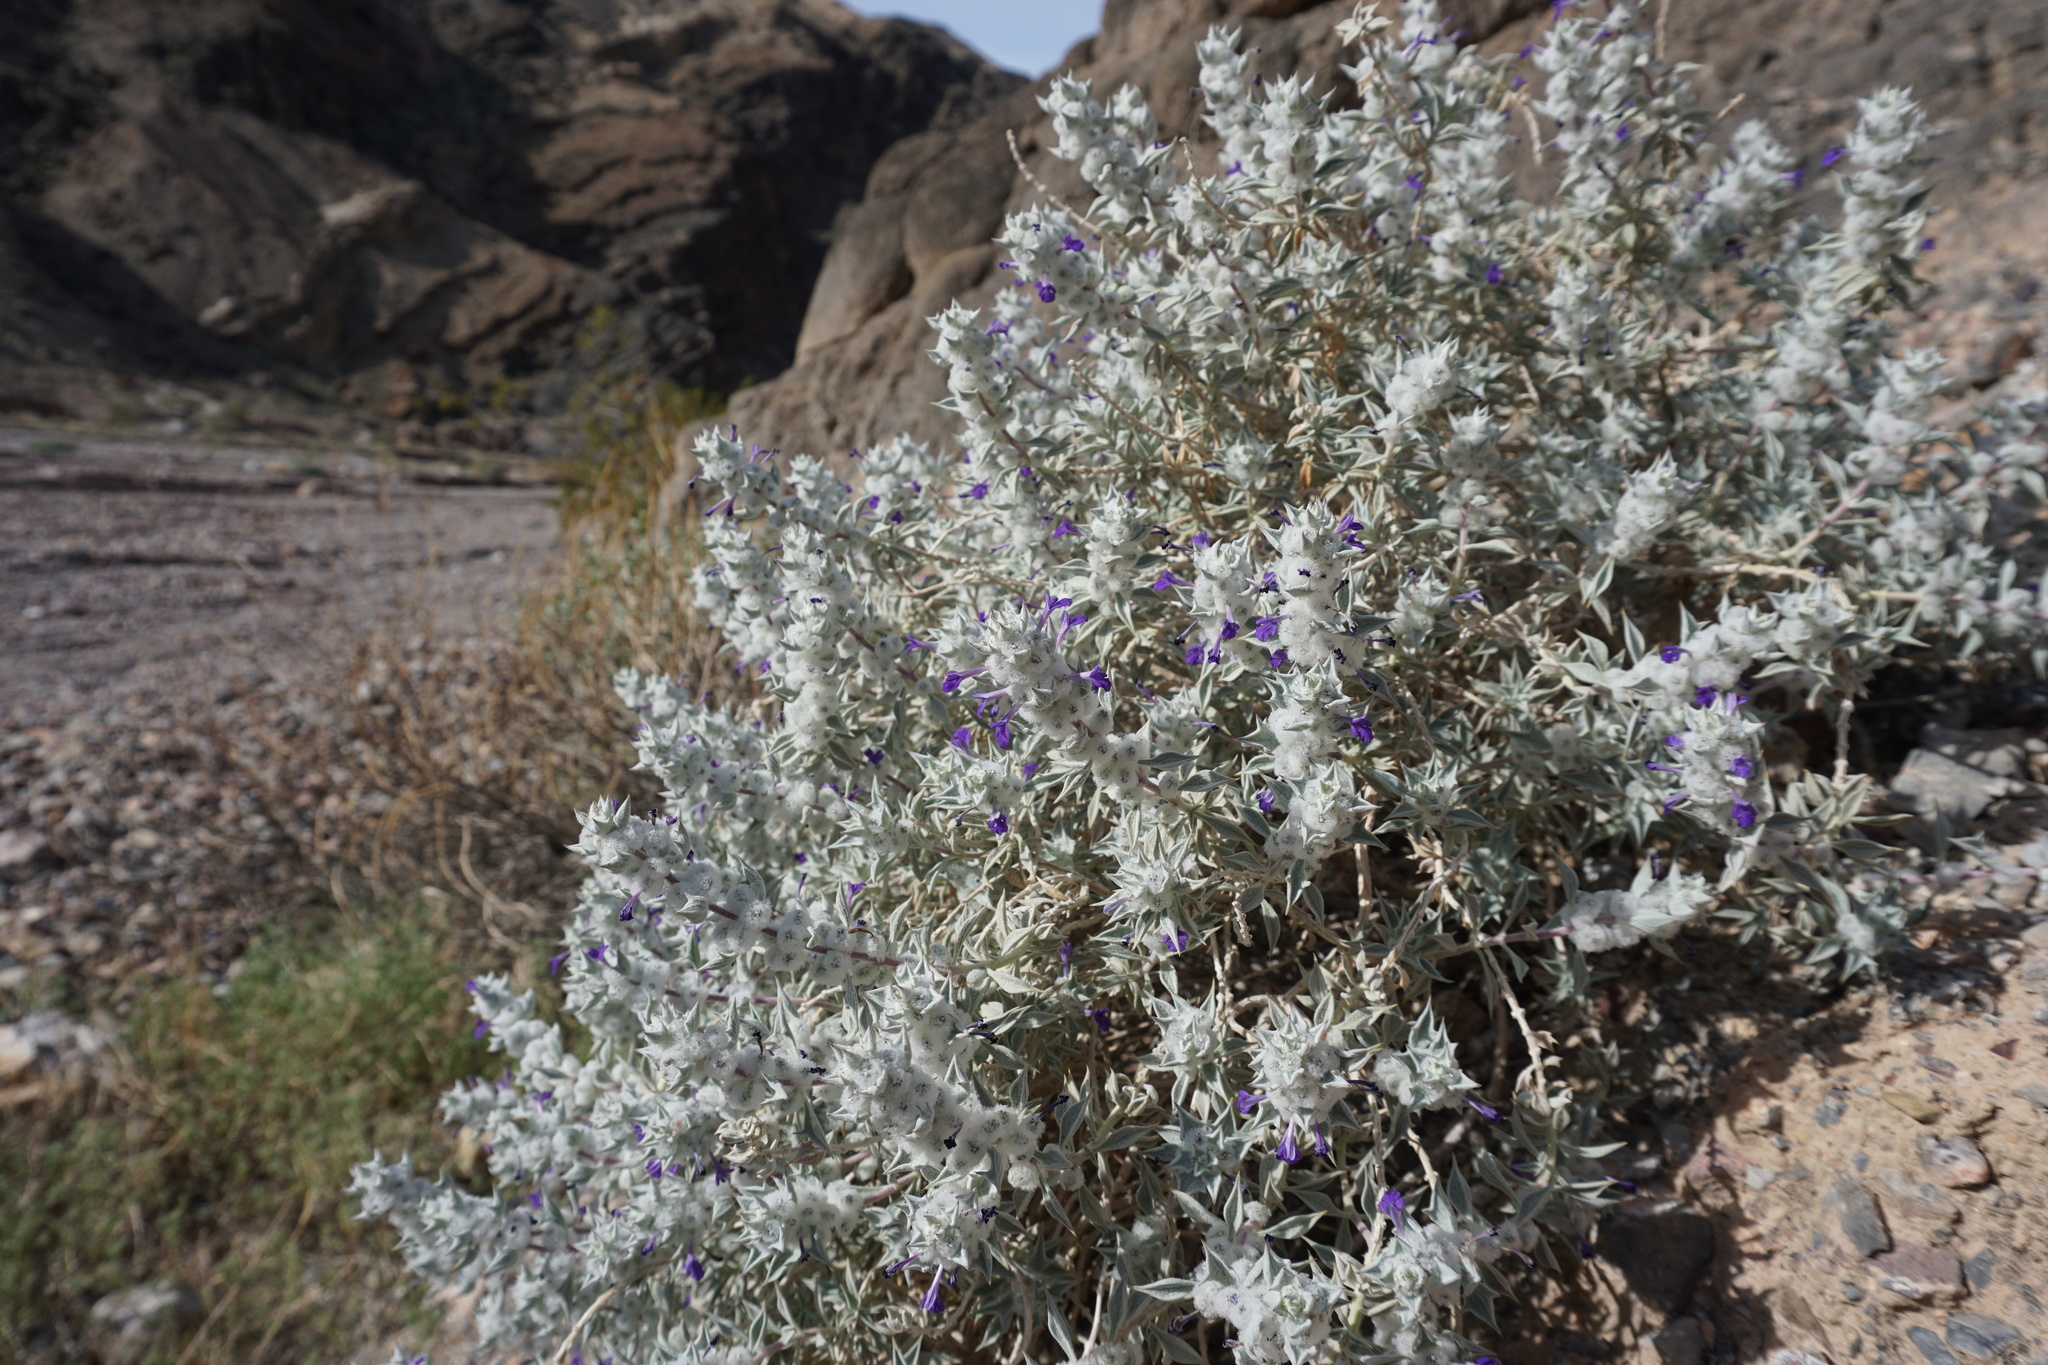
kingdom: Plantae
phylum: Tracheophyta
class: Magnoliopsida
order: Lamiales
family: Lamiaceae
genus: Salvia
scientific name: Salvia funerea
